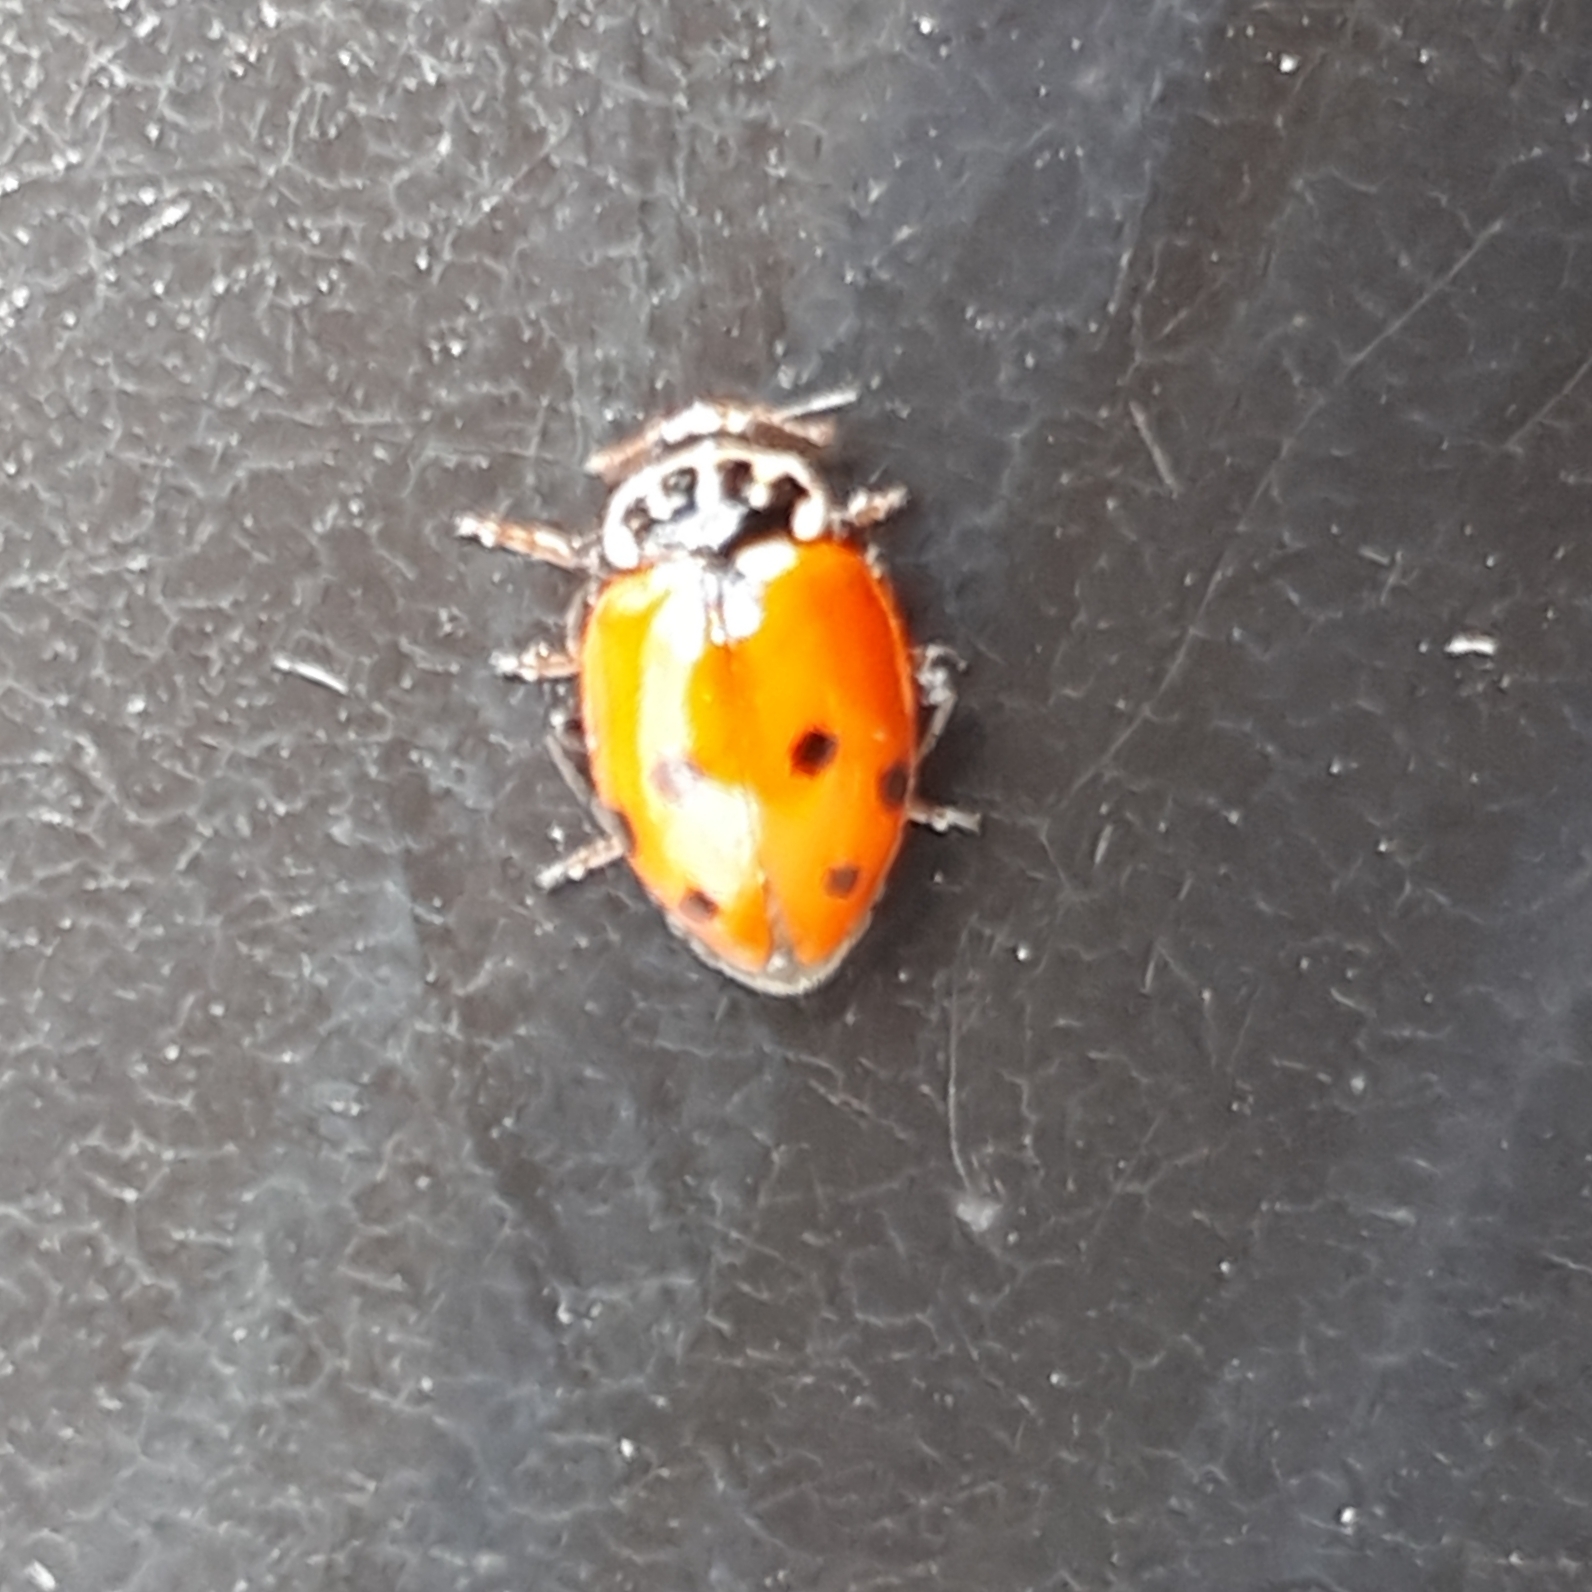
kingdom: Animalia
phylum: Arthropoda
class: Insecta
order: Coleoptera
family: Coccinellidae
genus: Hippodamia
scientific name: Hippodamia variegata
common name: Ladybird beetle
